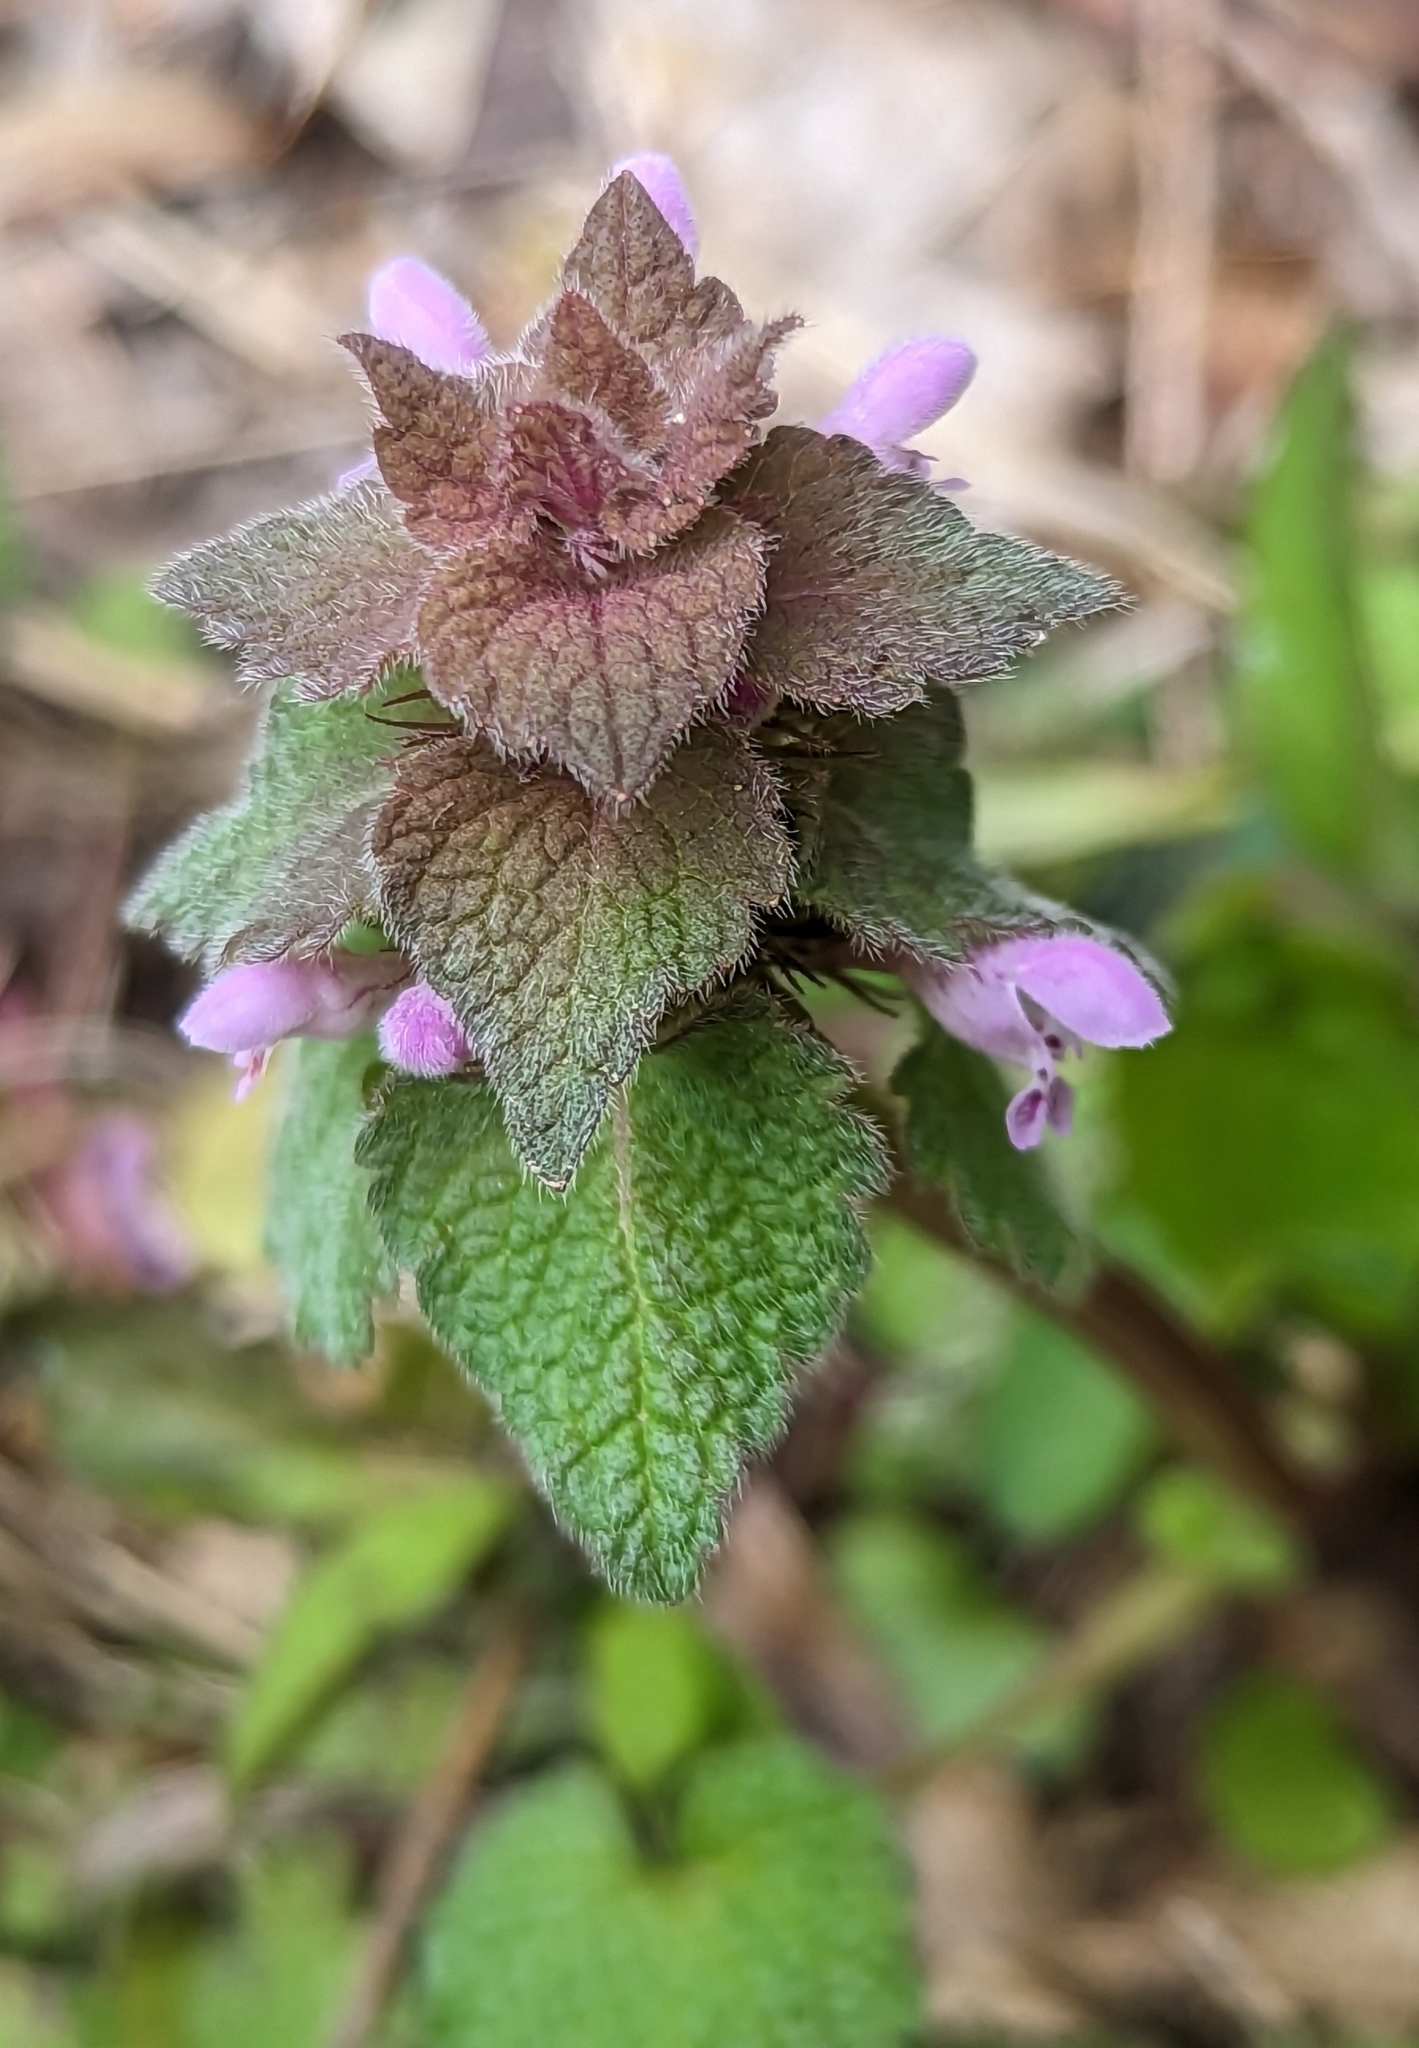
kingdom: Plantae
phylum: Tracheophyta
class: Magnoliopsida
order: Lamiales
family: Lamiaceae
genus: Lamium
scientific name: Lamium purpureum
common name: Red dead-nettle
